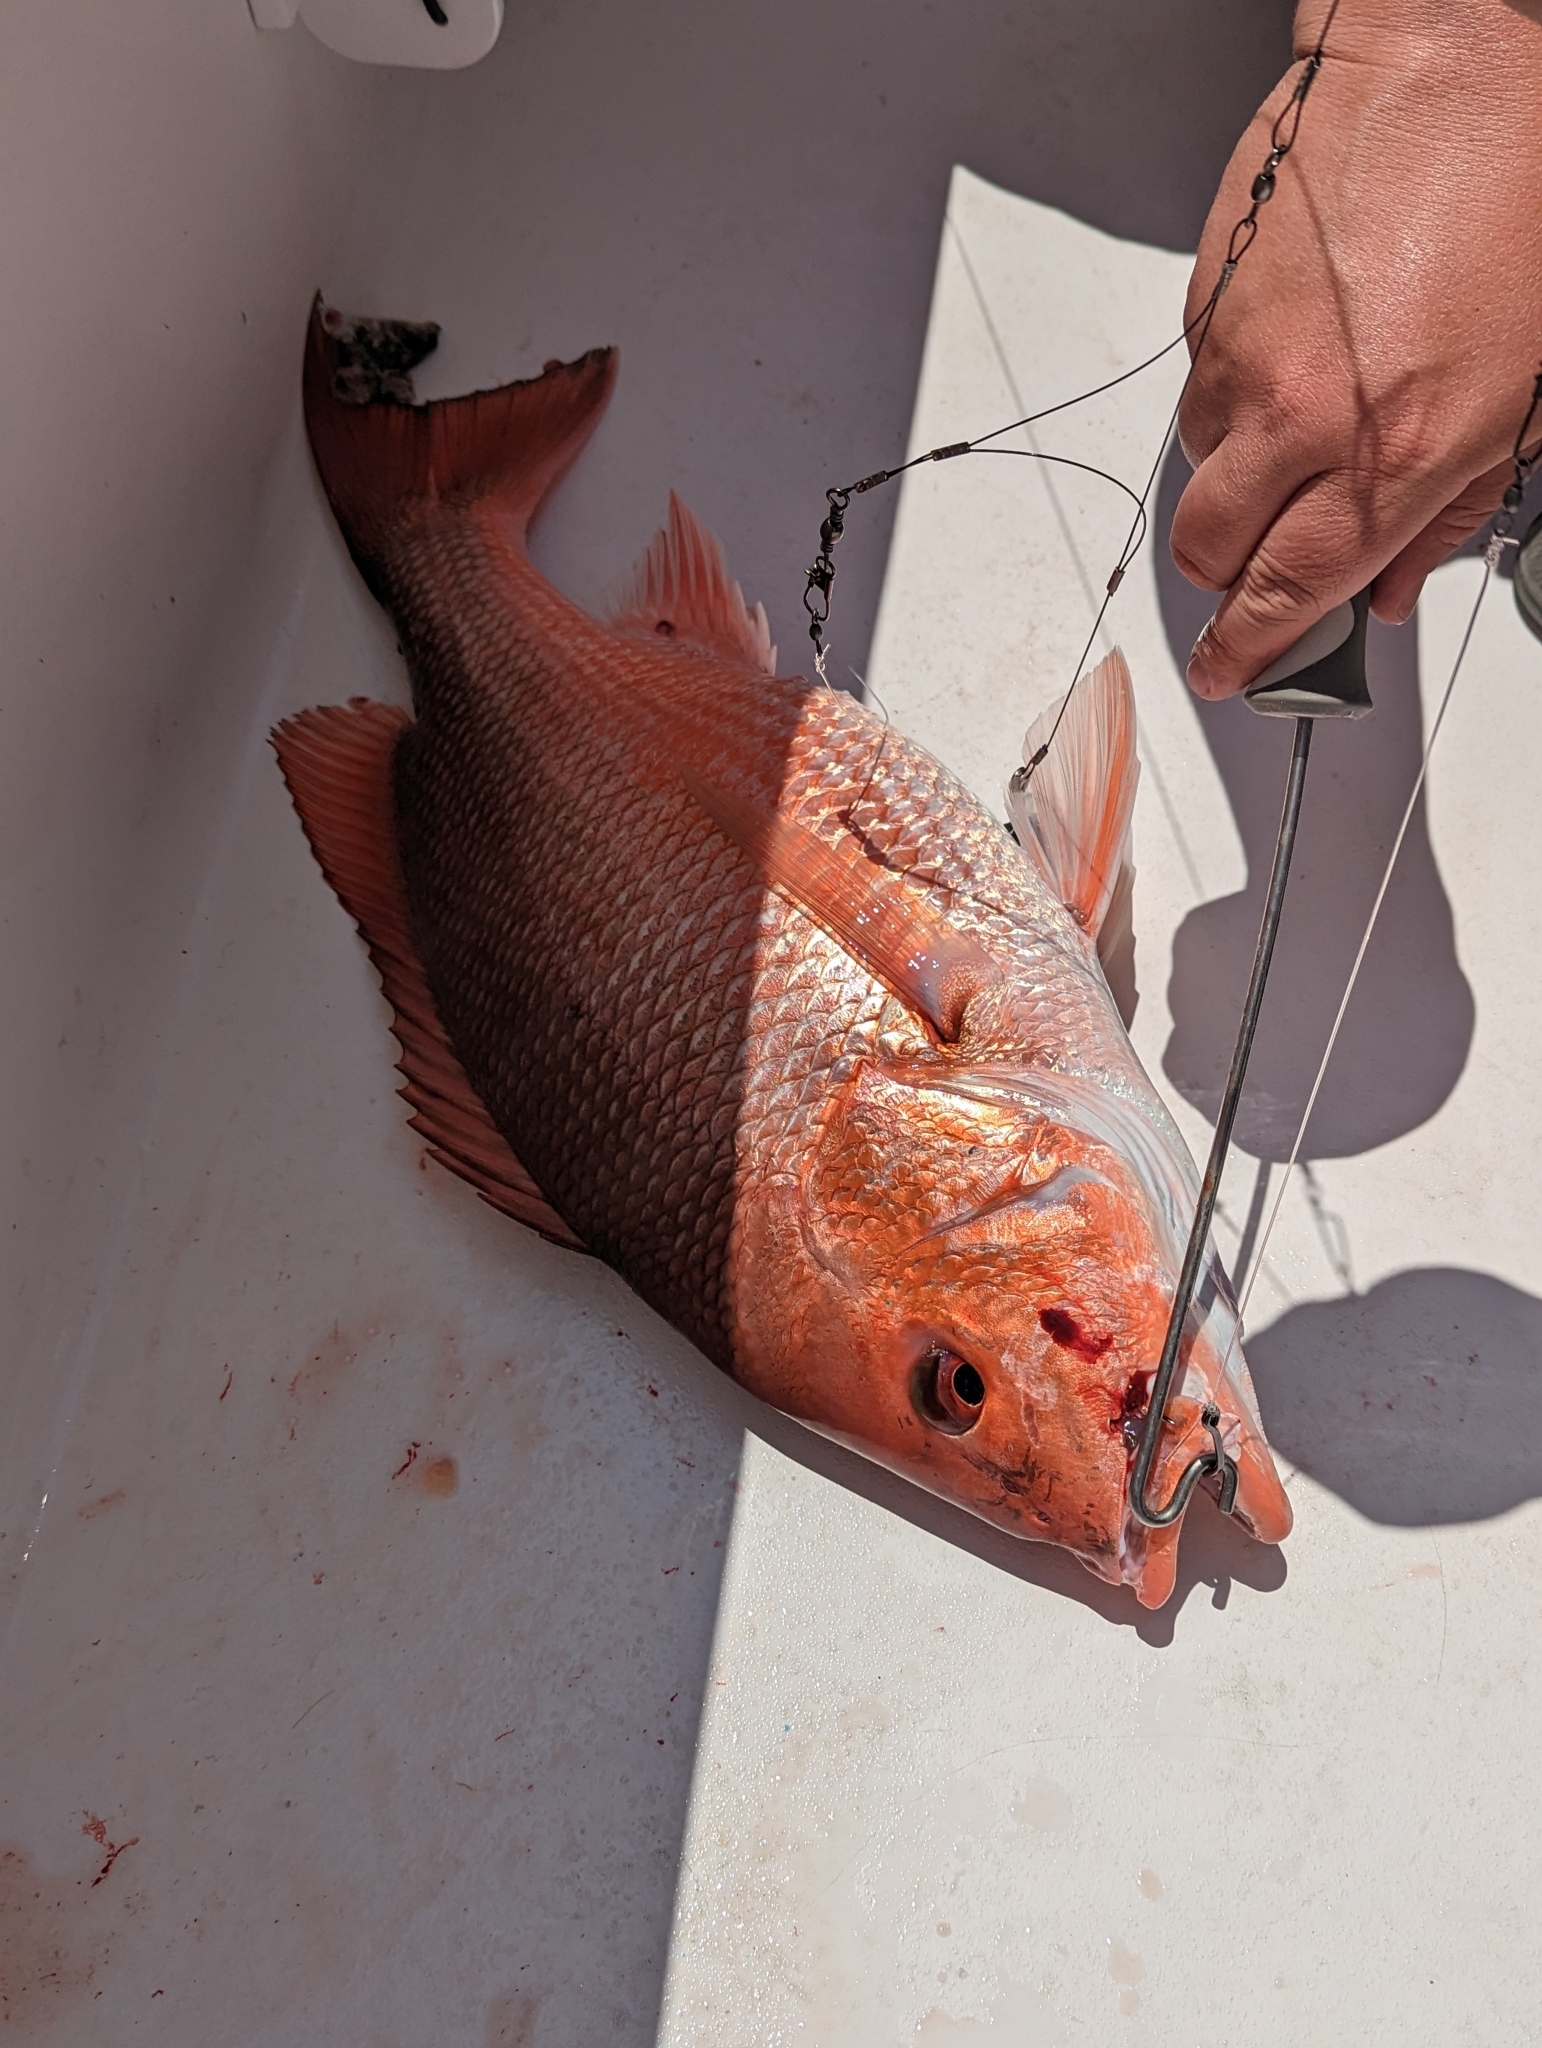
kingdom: Animalia
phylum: Chordata
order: Perciformes
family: Lutjanidae
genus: Lutjanus
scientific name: Lutjanus campechanus
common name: Red snapper
